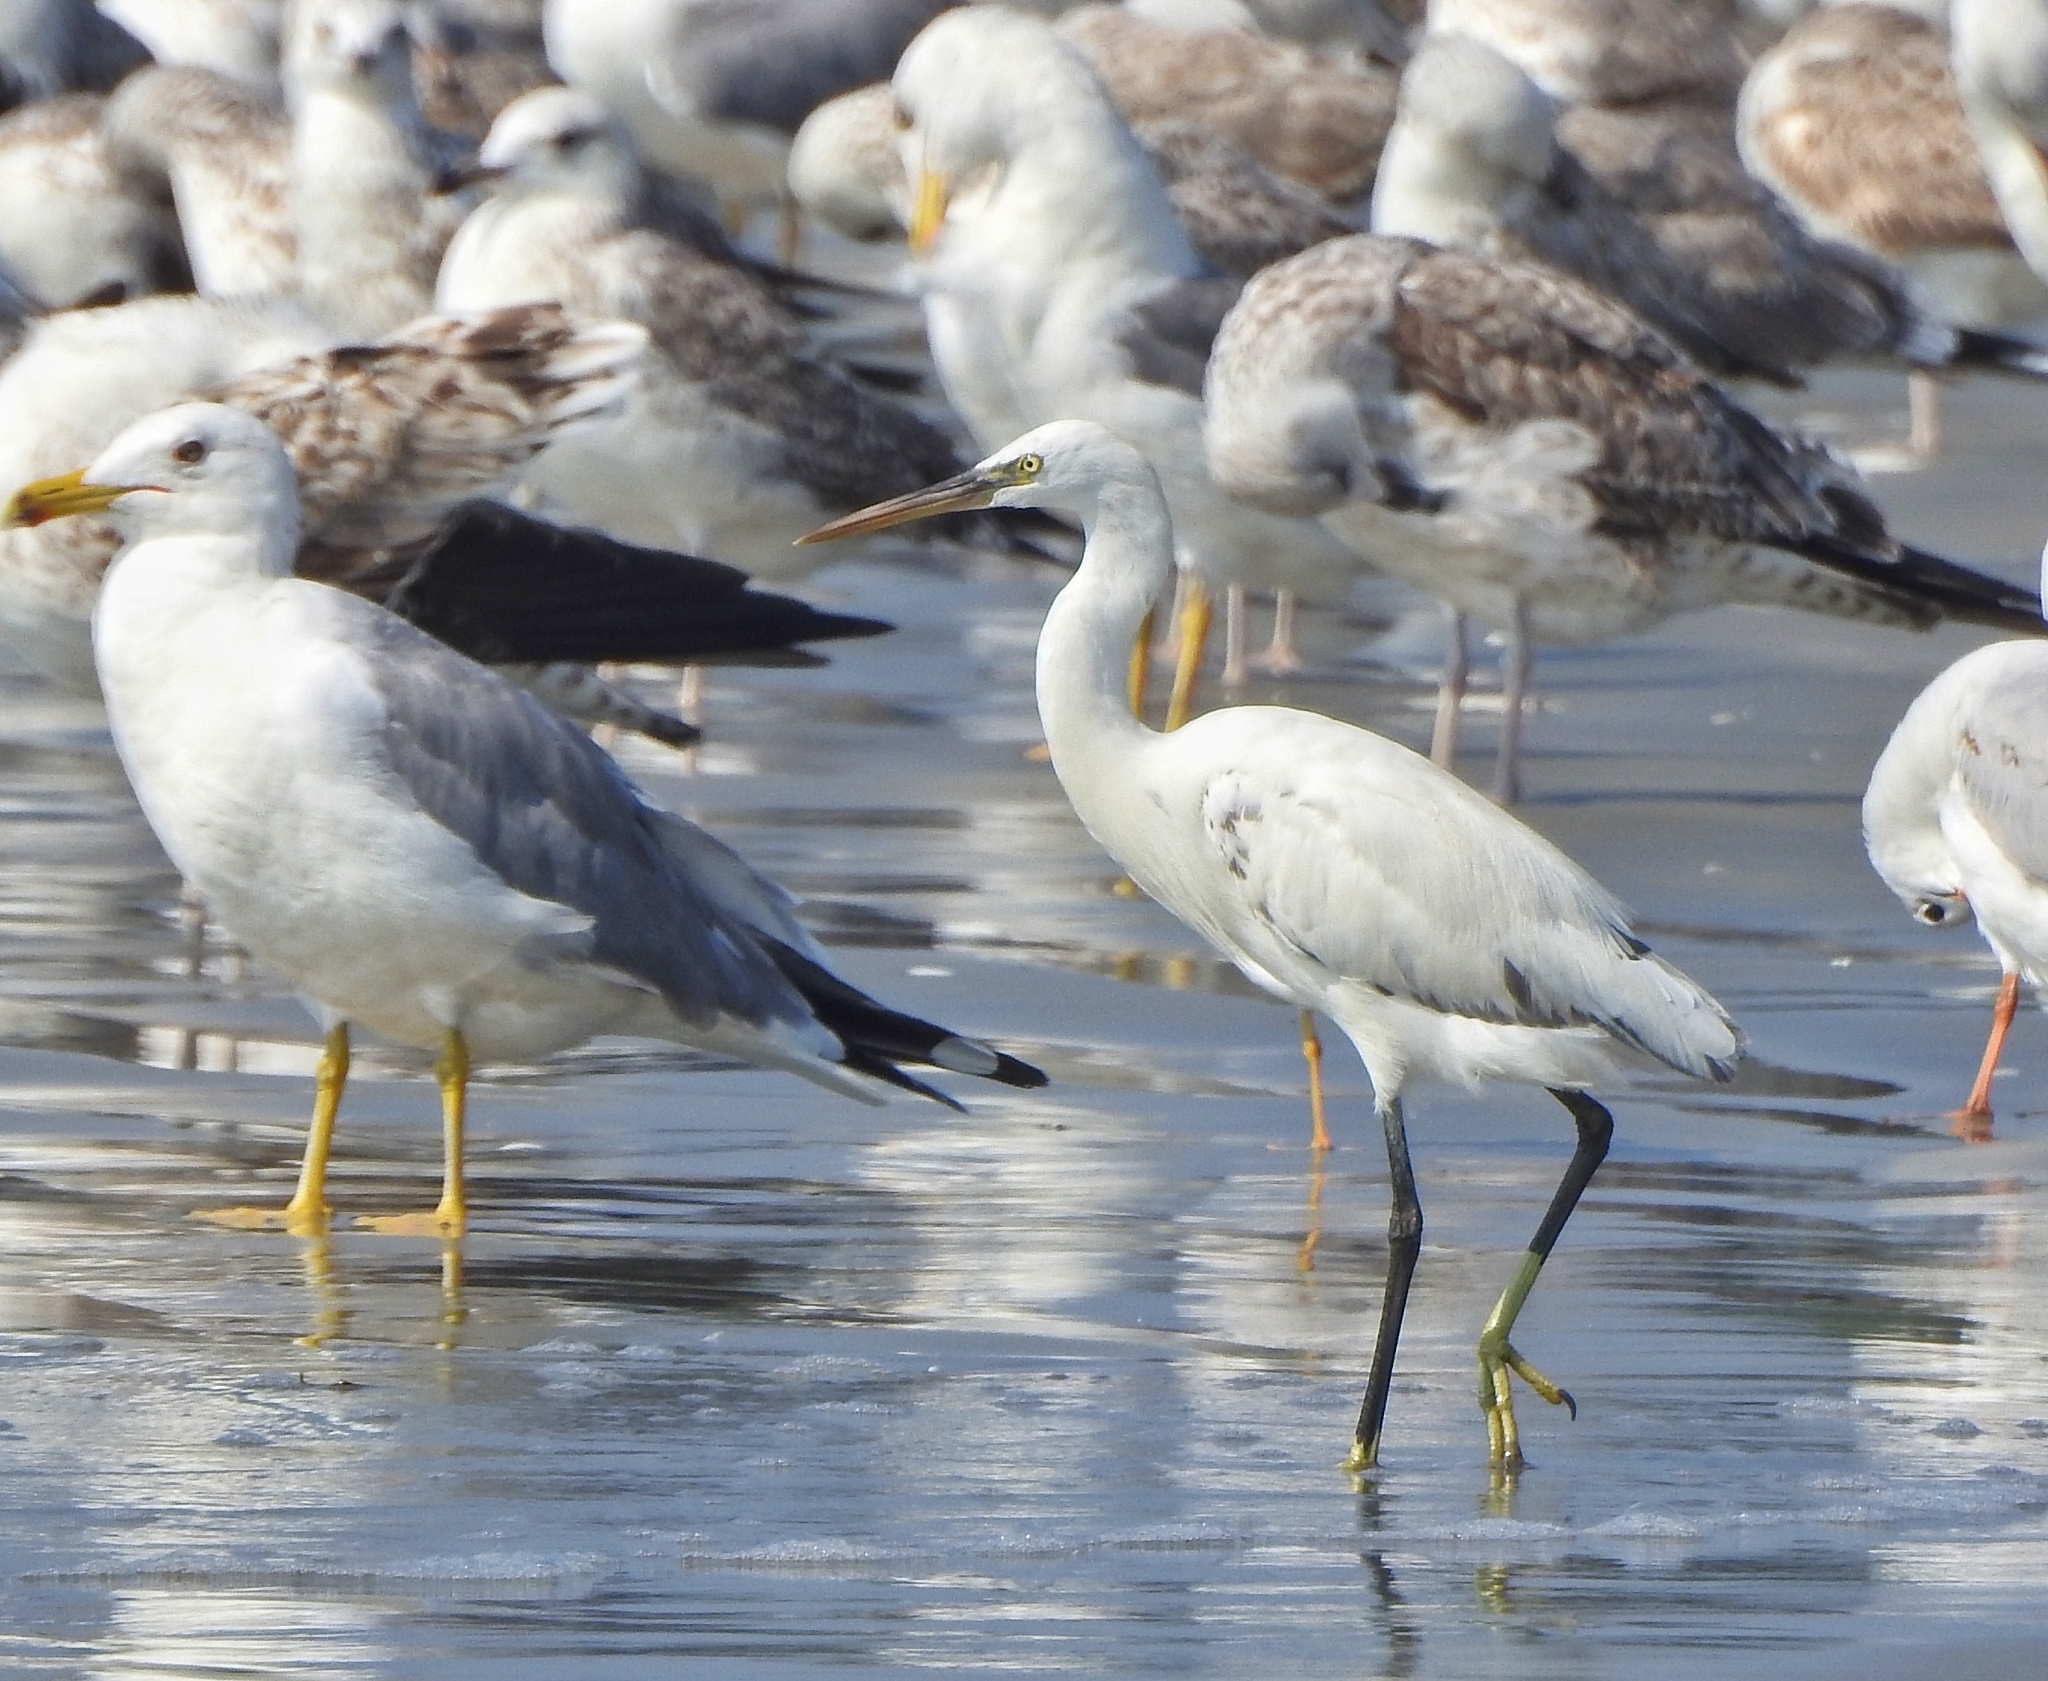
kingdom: Animalia
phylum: Chordata
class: Aves
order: Pelecaniformes
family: Ardeidae
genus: Egretta
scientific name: Egretta gularis
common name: Western reef-heron
